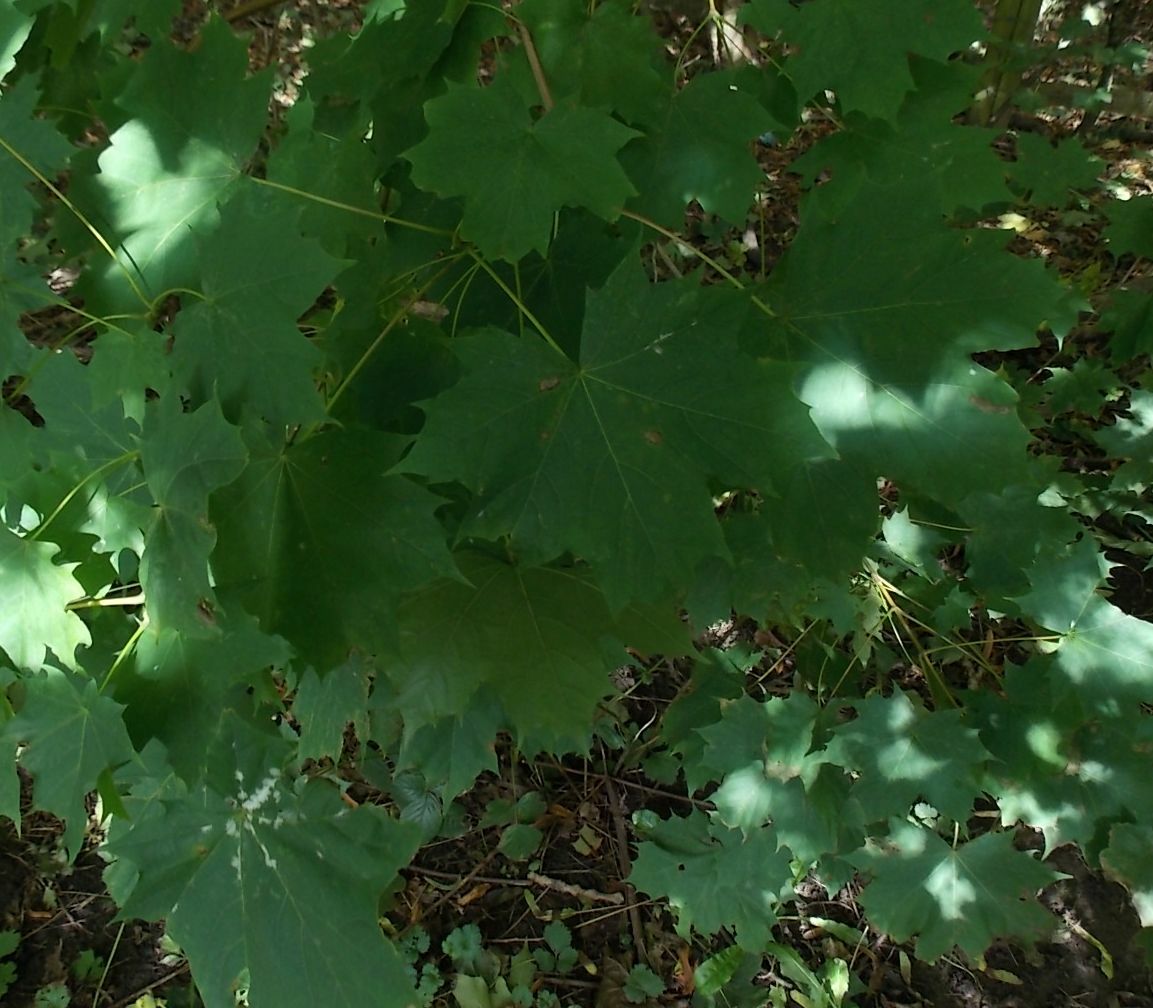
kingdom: Plantae
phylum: Tracheophyta
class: Magnoliopsida
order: Sapindales
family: Sapindaceae
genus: Acer
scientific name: Acer platanoides
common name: Norway maple
